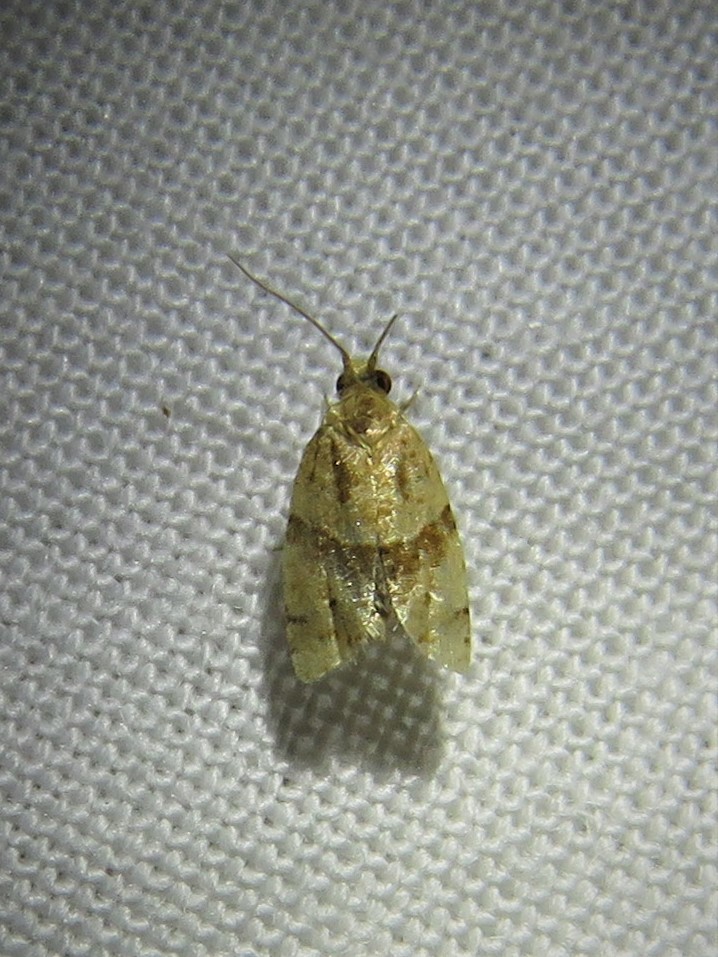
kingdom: Animalia
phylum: Arthropoda
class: Insecta
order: Lepidoptera
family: Tortricidae
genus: Clepsis
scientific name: Clepsis peritana
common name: Garden tortrix
